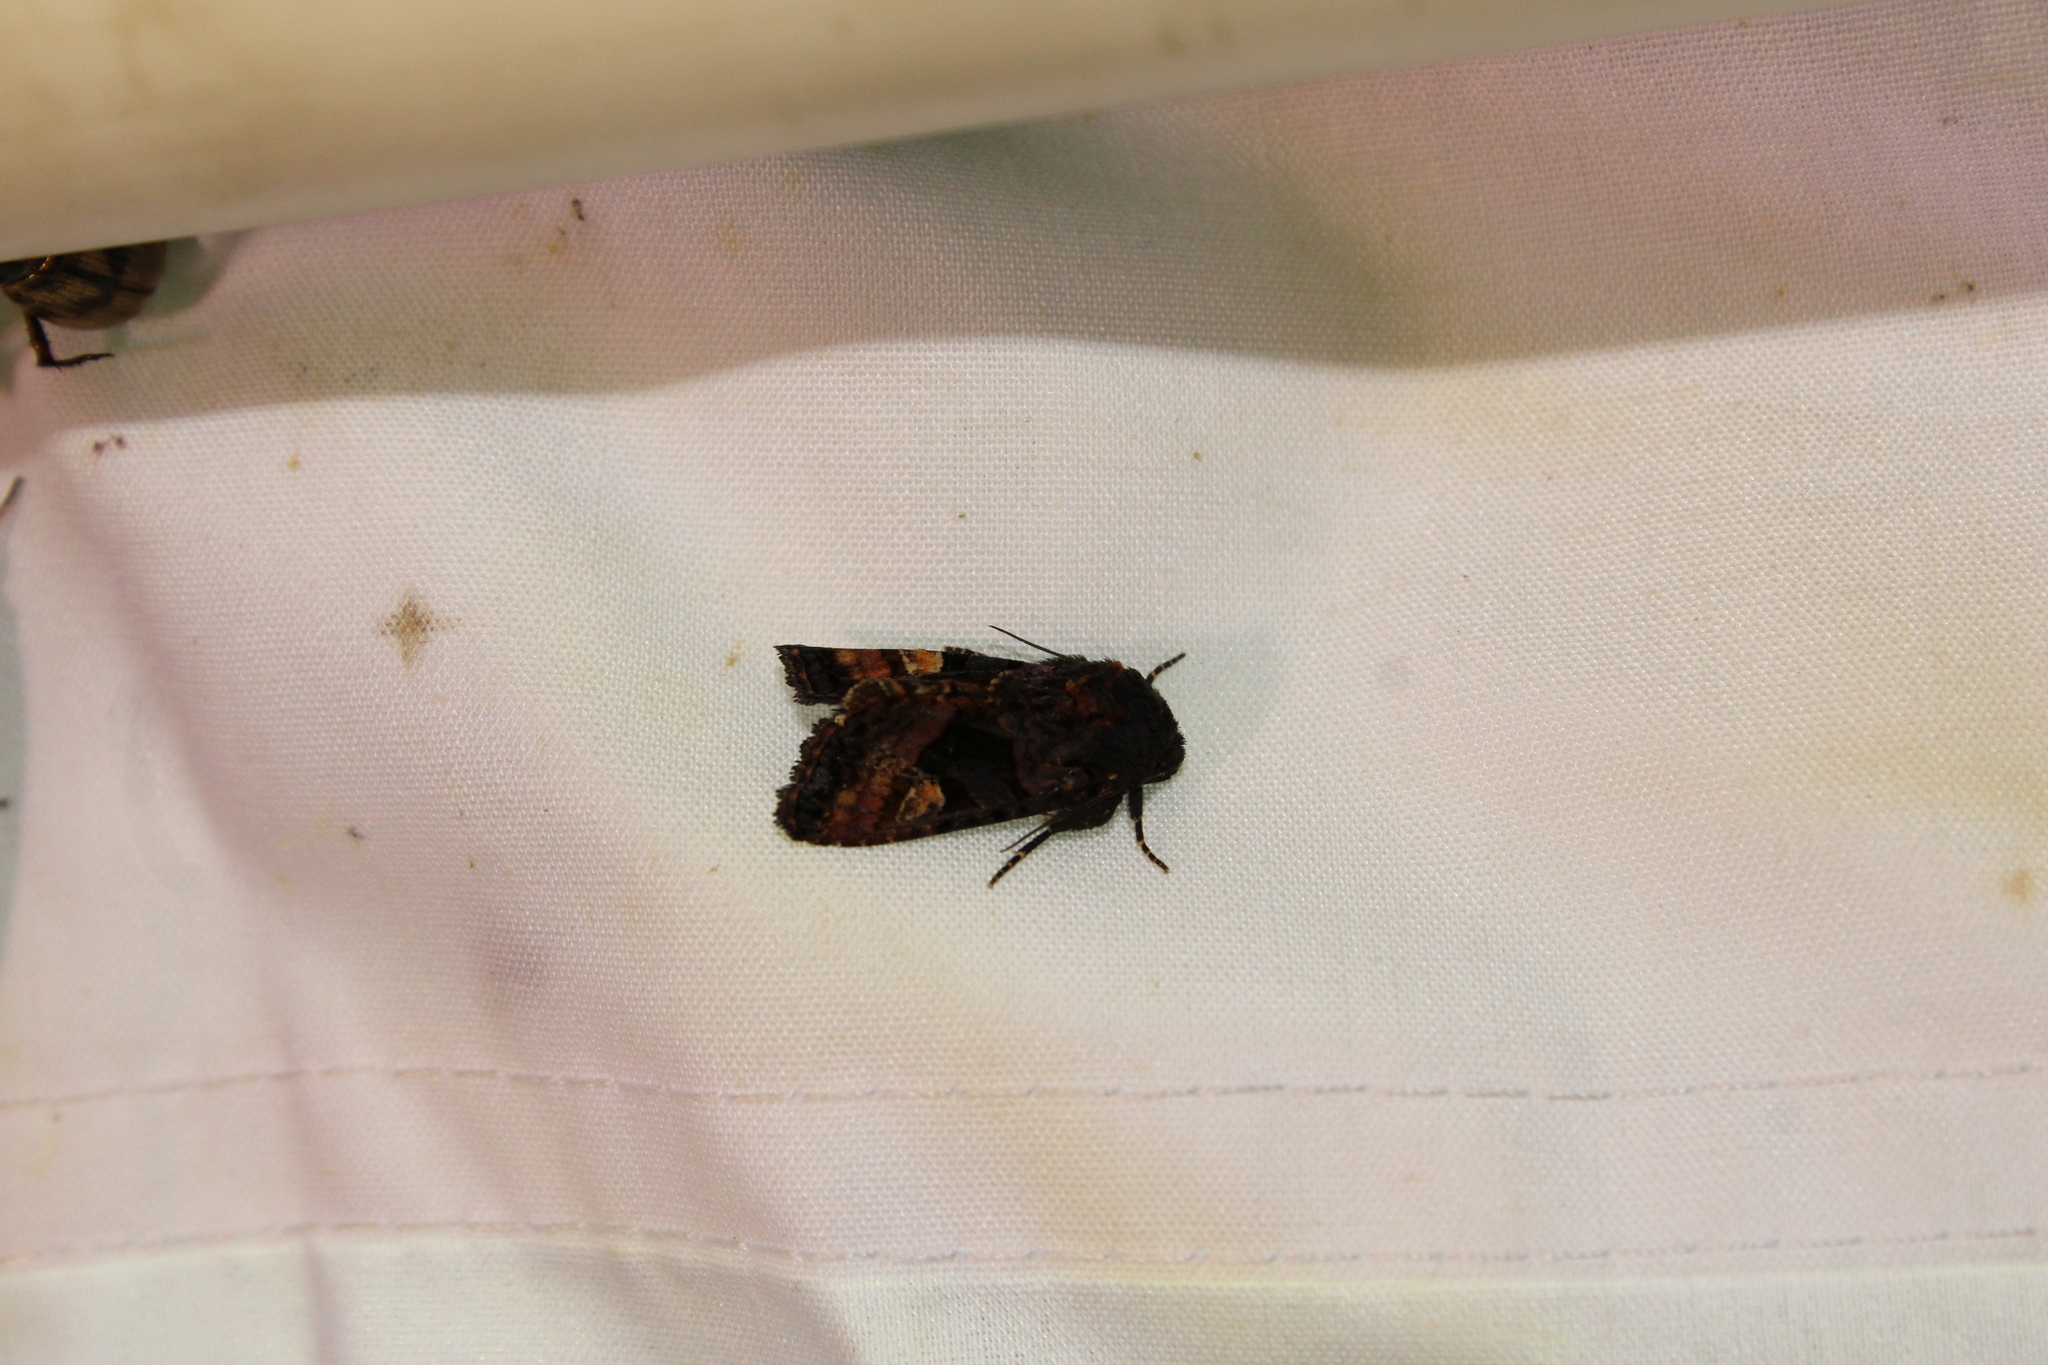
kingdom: Animalia
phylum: Arthropoda
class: Insecta
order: Lepidoptera
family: Noctuidae
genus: Euplexia
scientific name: Euplexia benesimilis
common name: American angle shades
